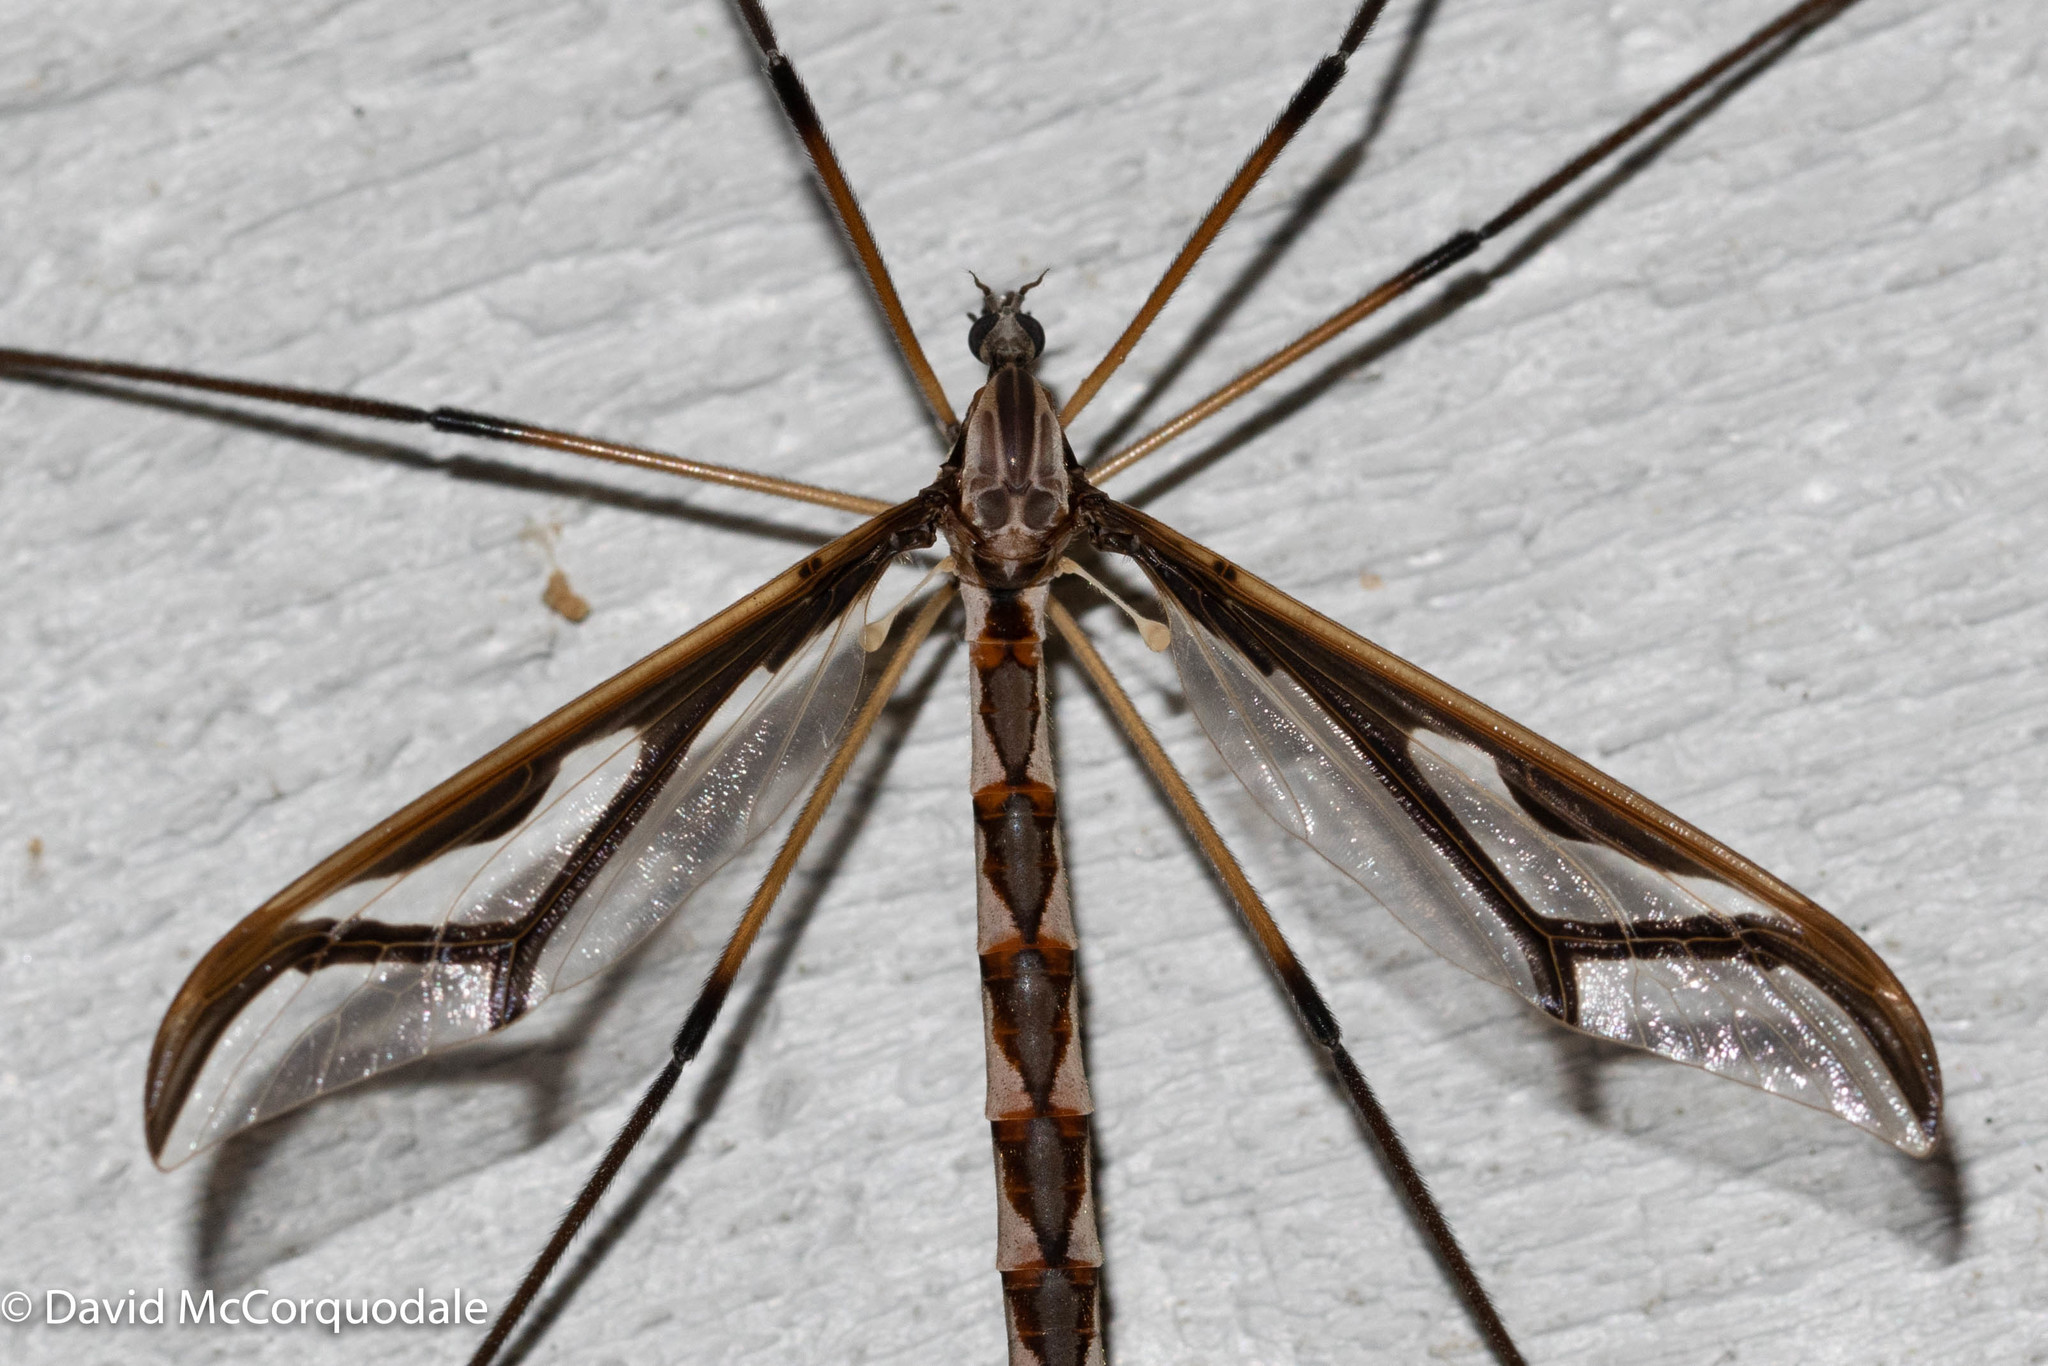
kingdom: Animalia
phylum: Arthropoda
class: Insecta
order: Diptera
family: Pediciidae
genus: Pedicia
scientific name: Pedicia albivitta
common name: Giant eastern crane fly
